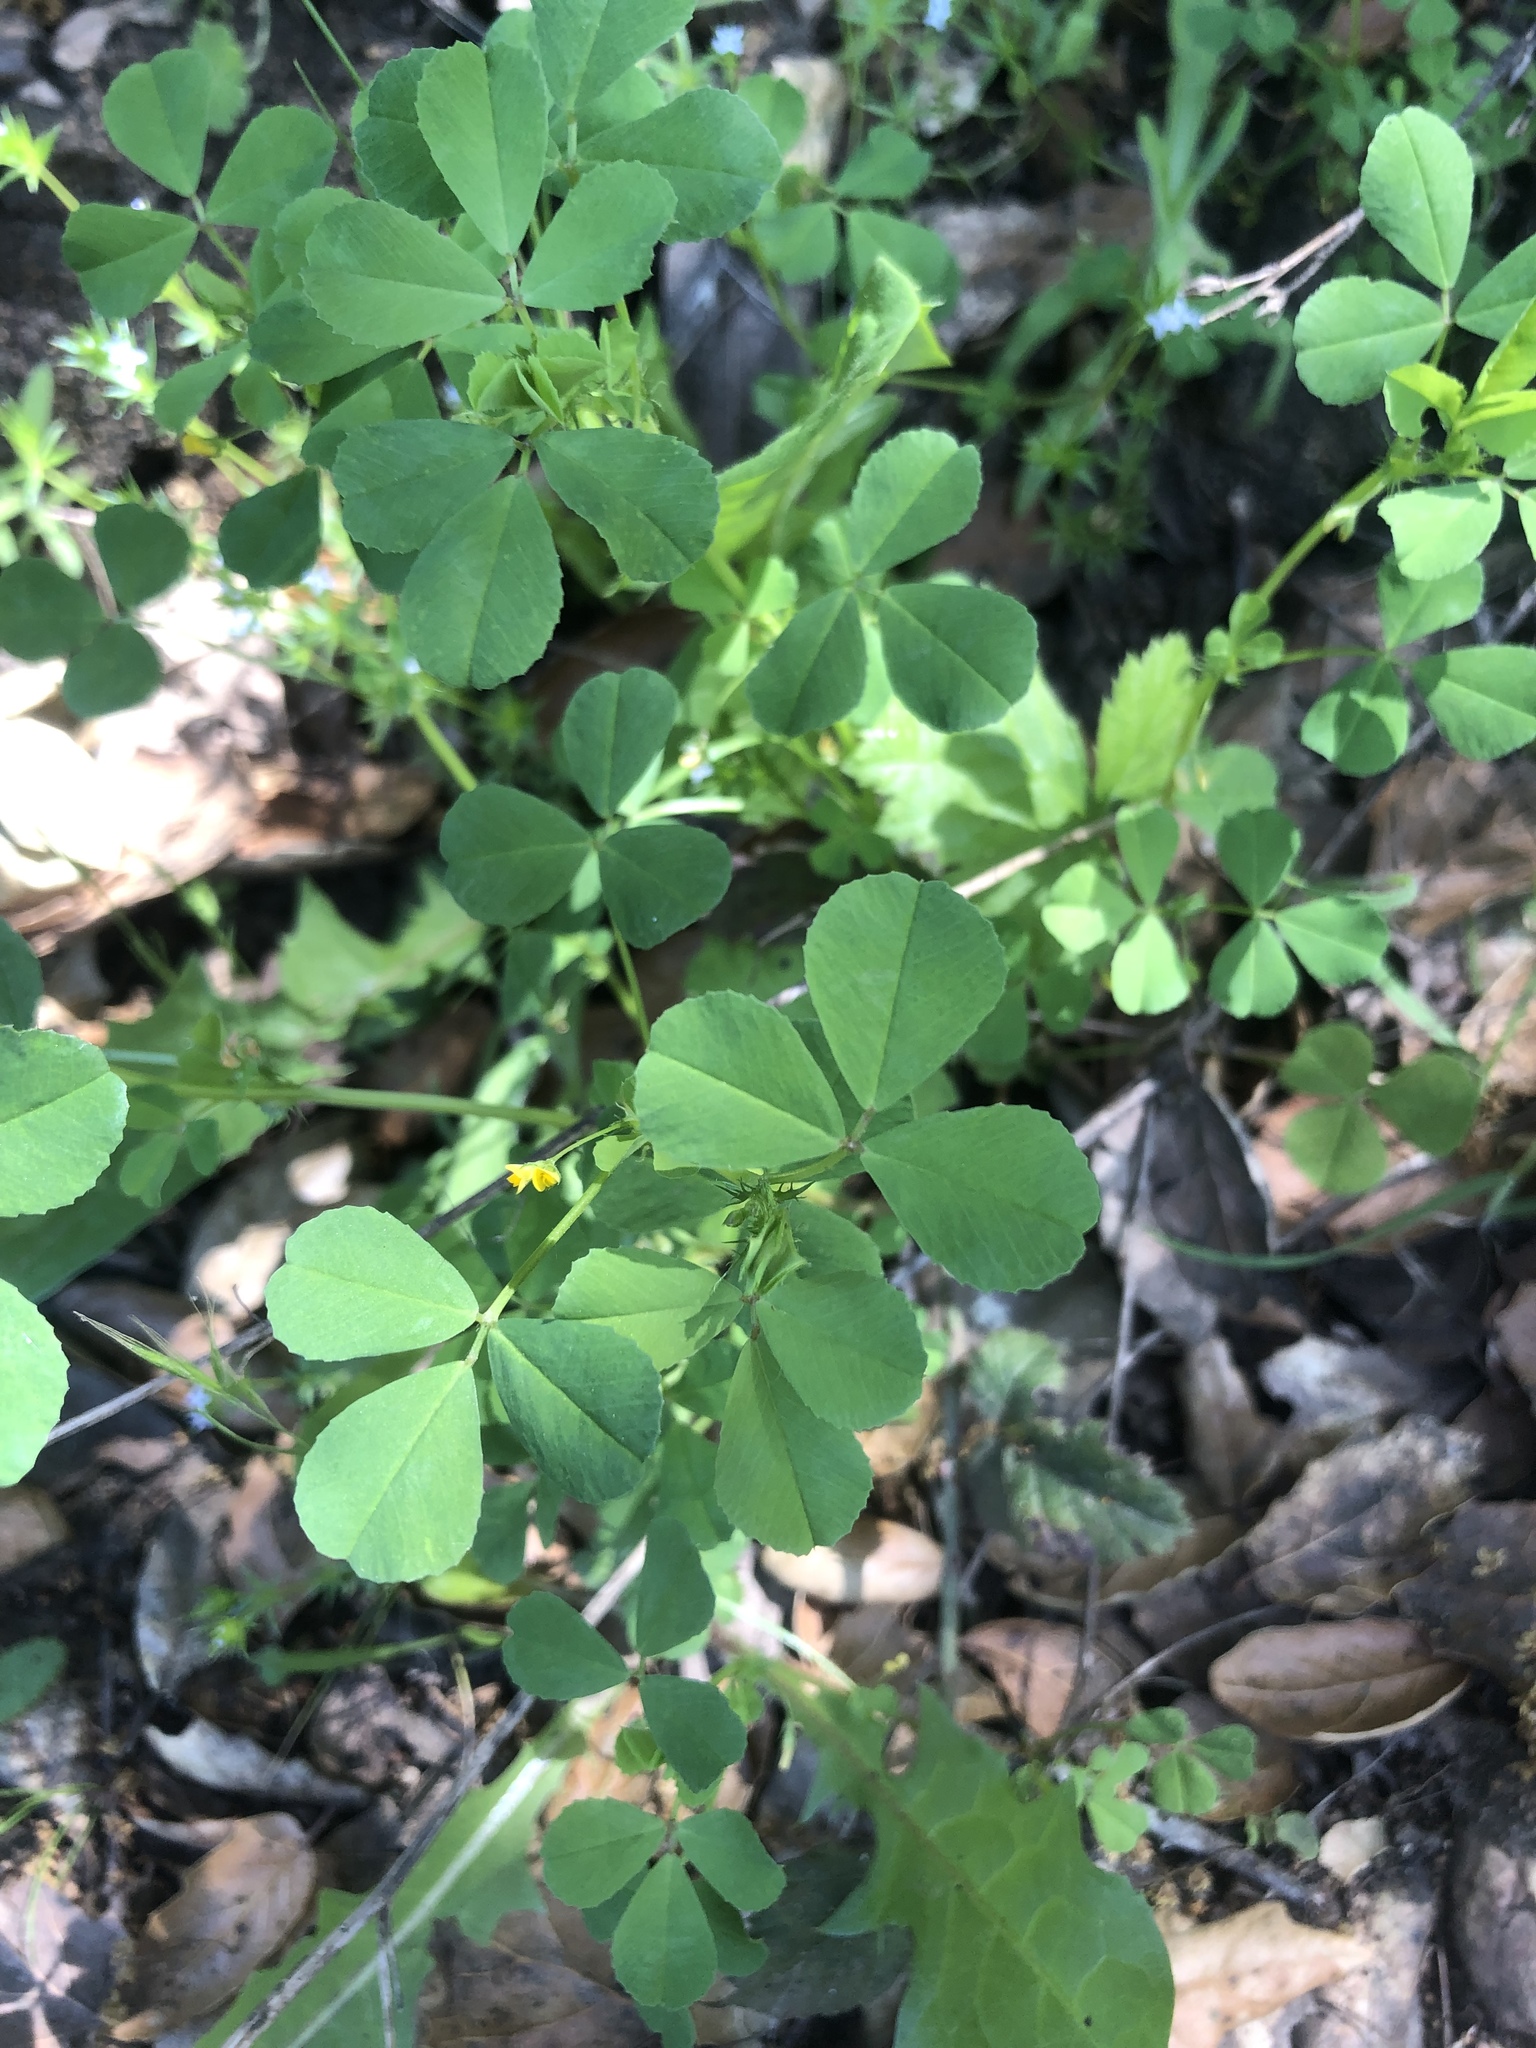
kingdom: Plantae
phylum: Tracheophyta
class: Magnoliopsida
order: Fabales
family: Fabaceae
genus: Medicago
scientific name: Medicago polymorpha
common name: Burclover
